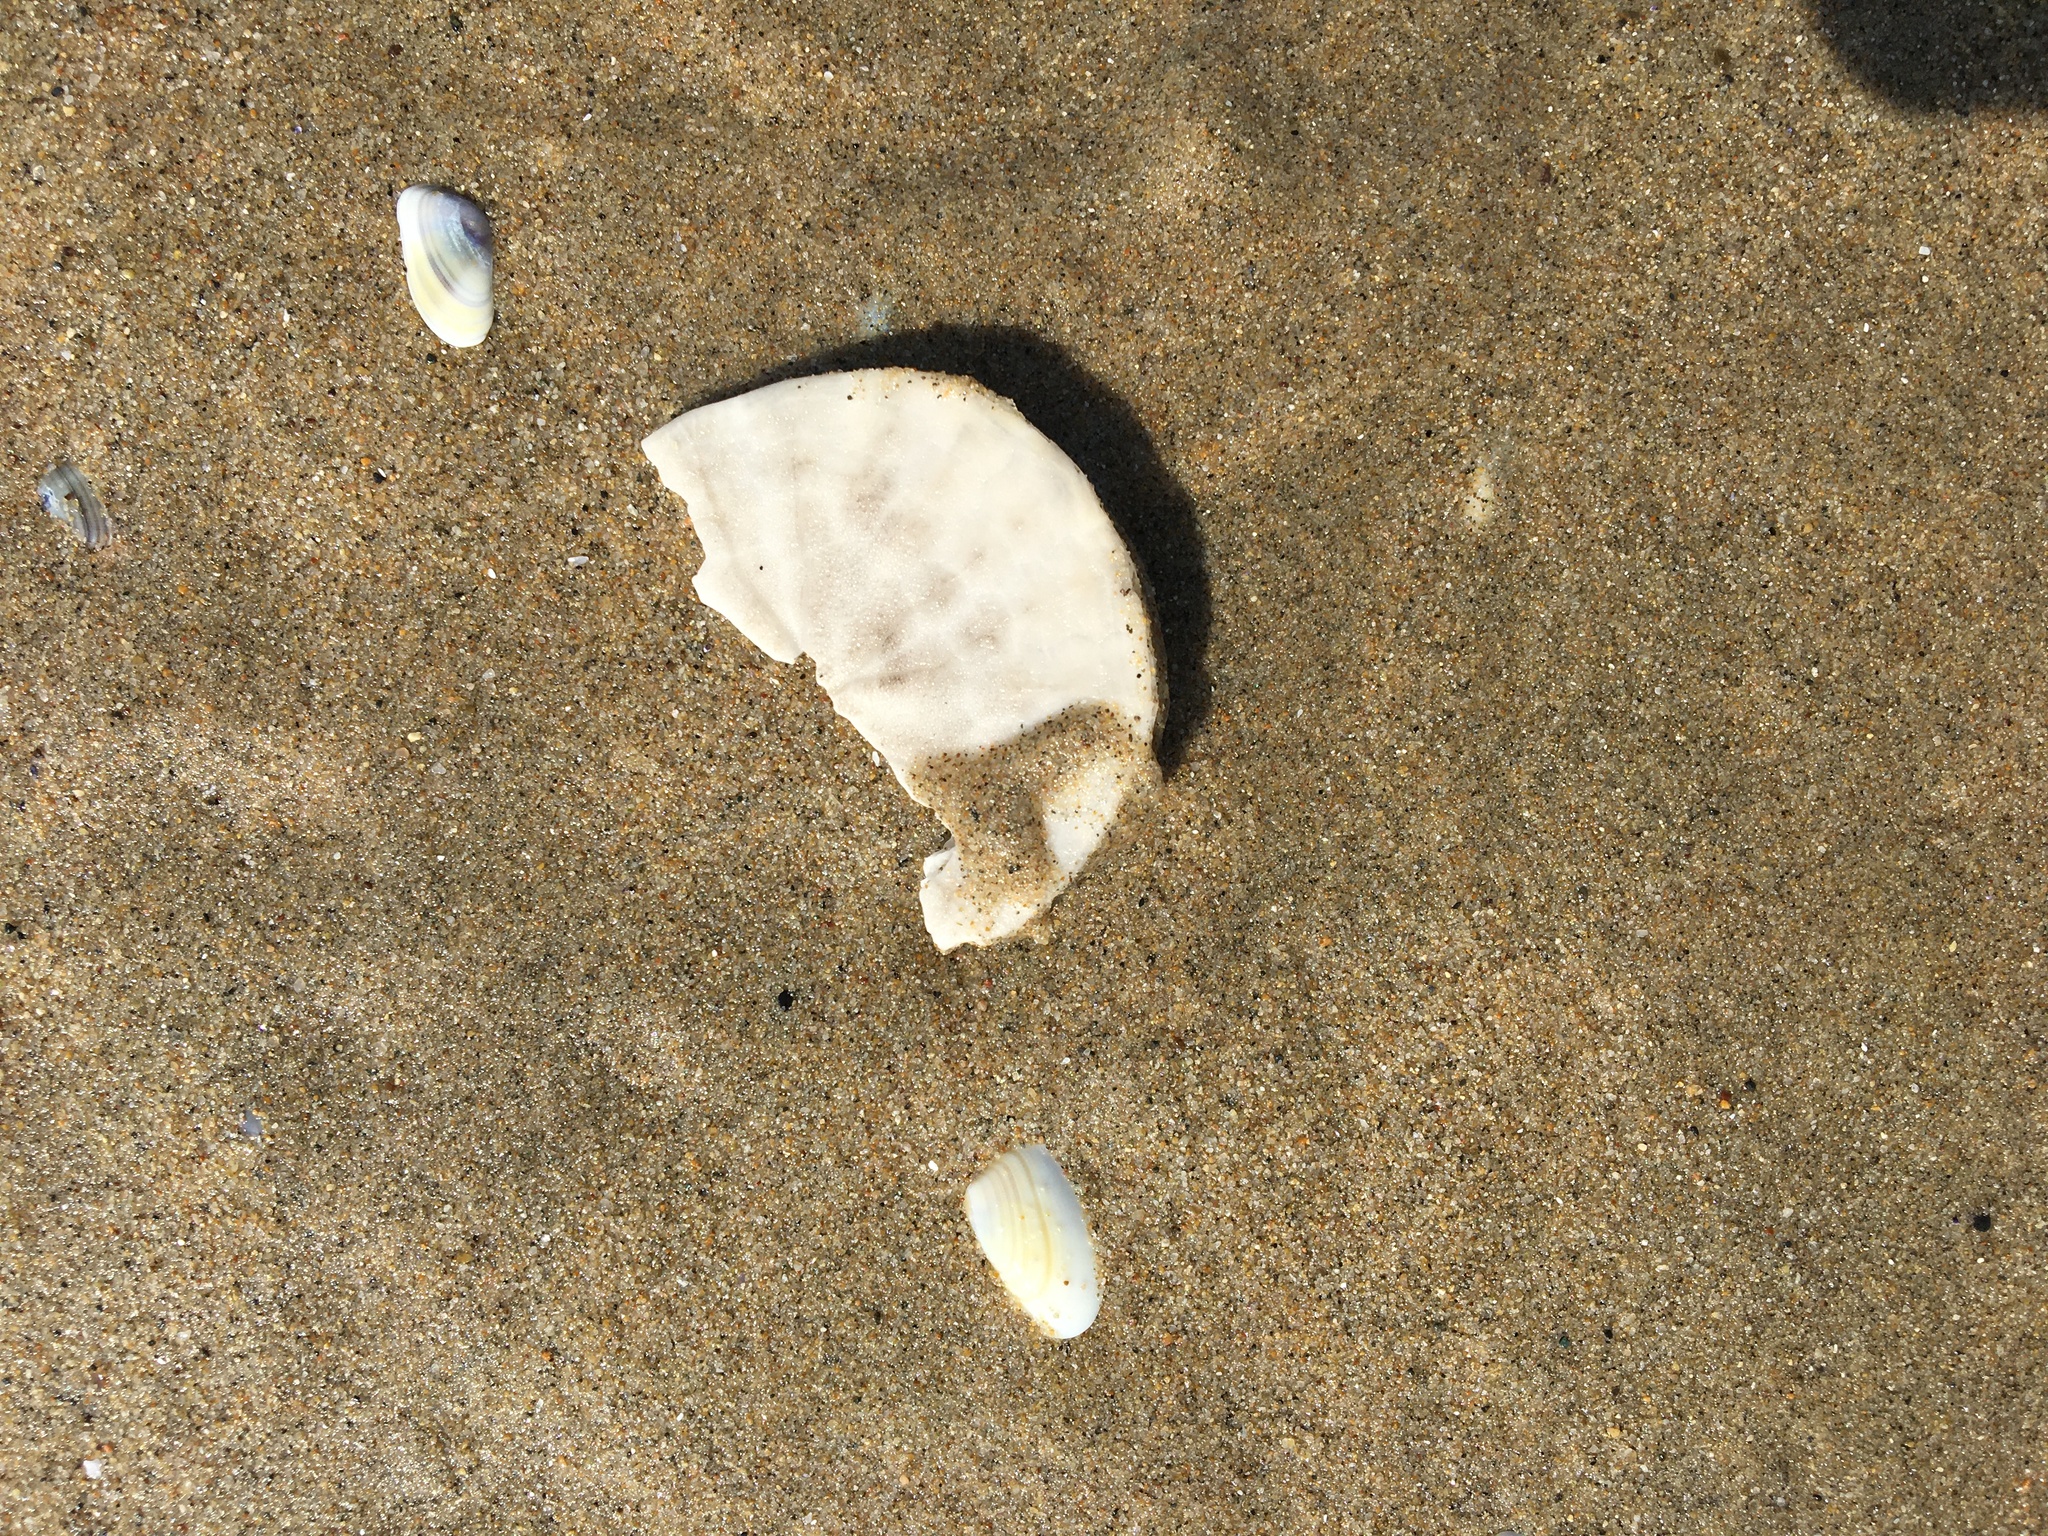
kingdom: Animalia
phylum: Echinodermata
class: Echinoidea
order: Echinolampadacea
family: Dendrasteridae
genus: Dendraster
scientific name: Dendraster excentricus
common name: Eccentric sand dollar sea urchin
